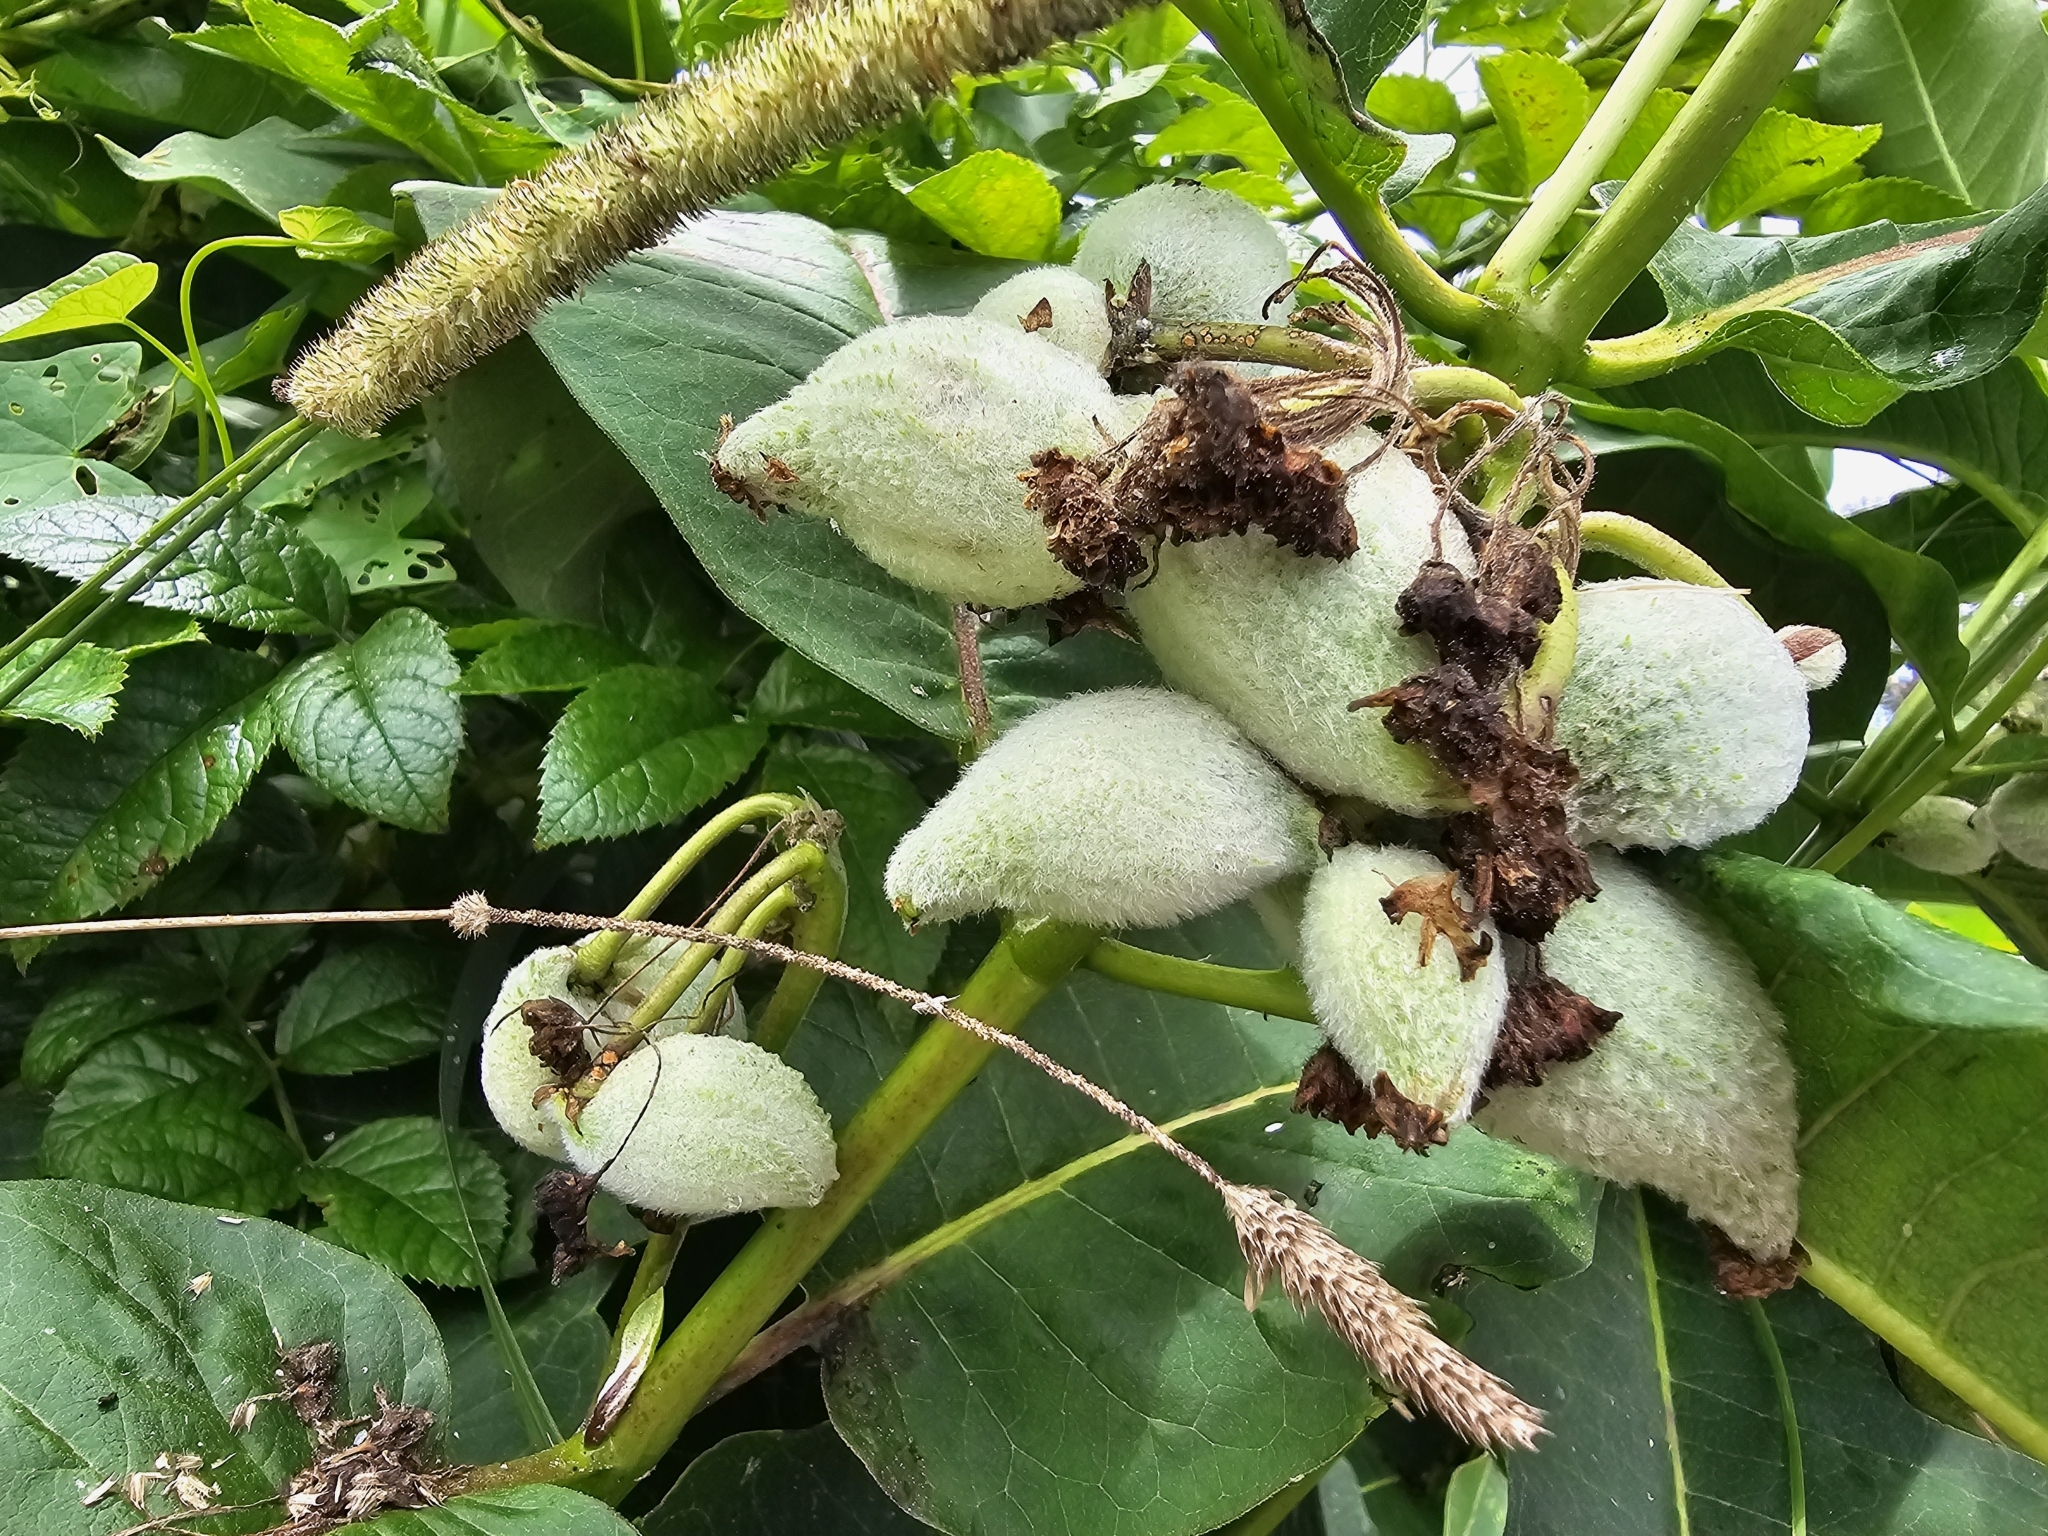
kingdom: Plantae
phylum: Tracheophyta
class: Magnoliopsida
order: Gentianales
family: Apocynaceae
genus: Asclepias
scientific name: Asclepias syriaca
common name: Common milkweed
